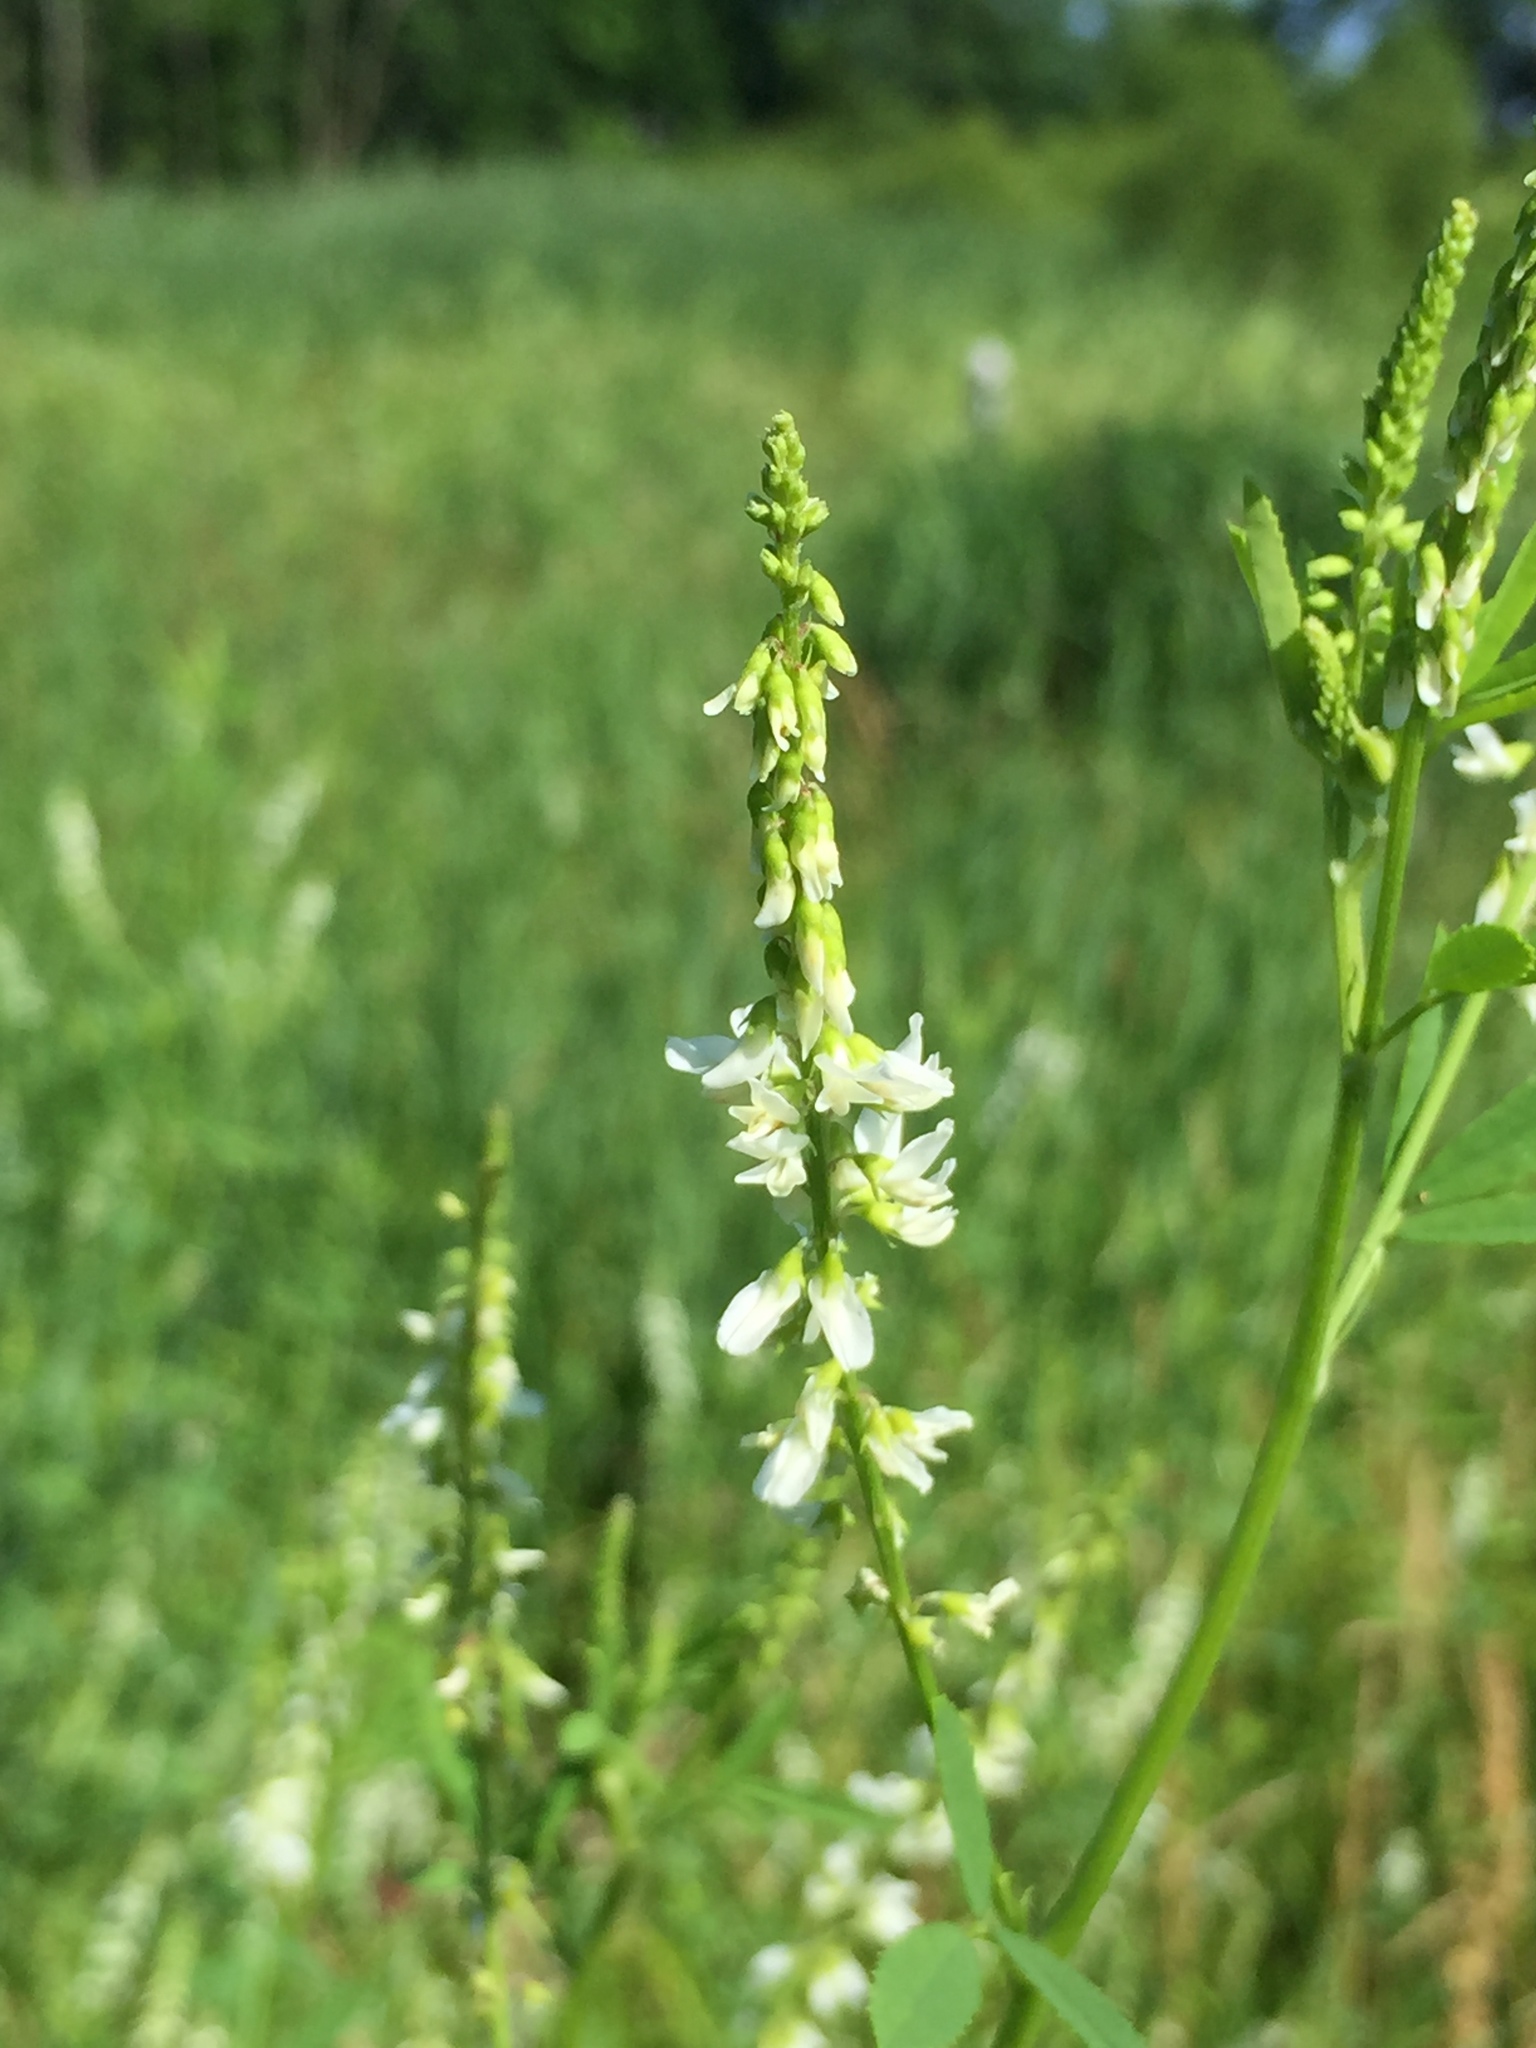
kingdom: Plantae
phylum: Tracheophyta
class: Magnoliopsida
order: Fabales
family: Fabaceae
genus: Melilotus
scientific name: Melilotus albus
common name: White melilot
